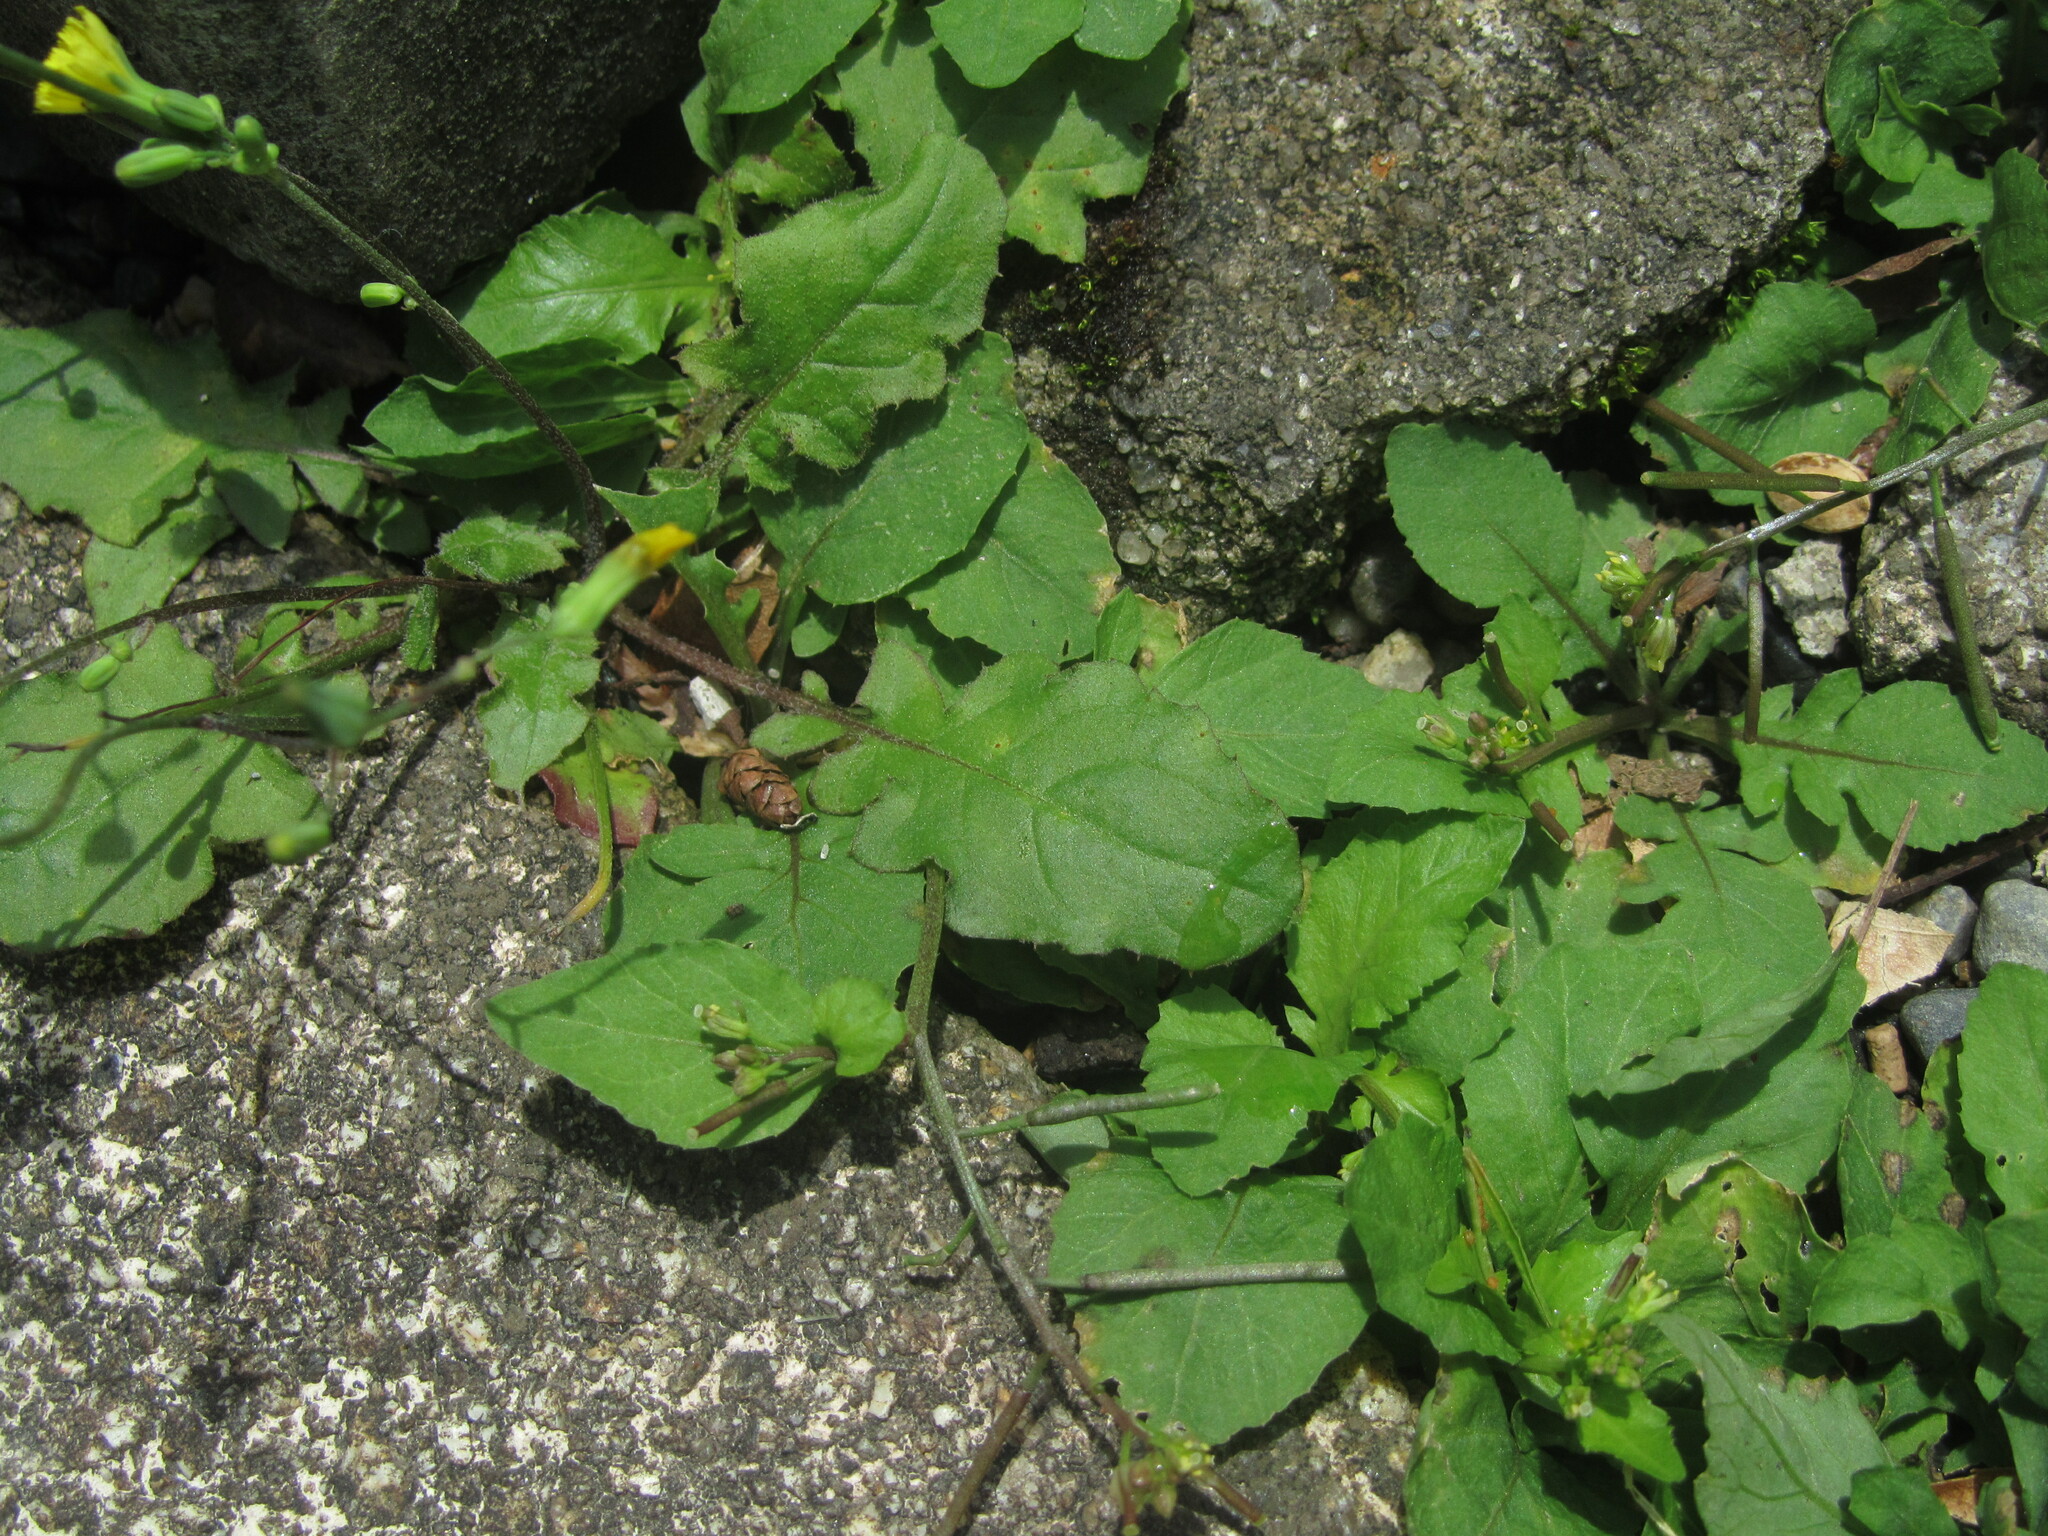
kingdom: Plantae
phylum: Tracheophyta
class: Magnoliopsida
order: Asterales
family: Asteraceae
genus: Youngia
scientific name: Youngia japonica
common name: Oriental false hawksbeard
